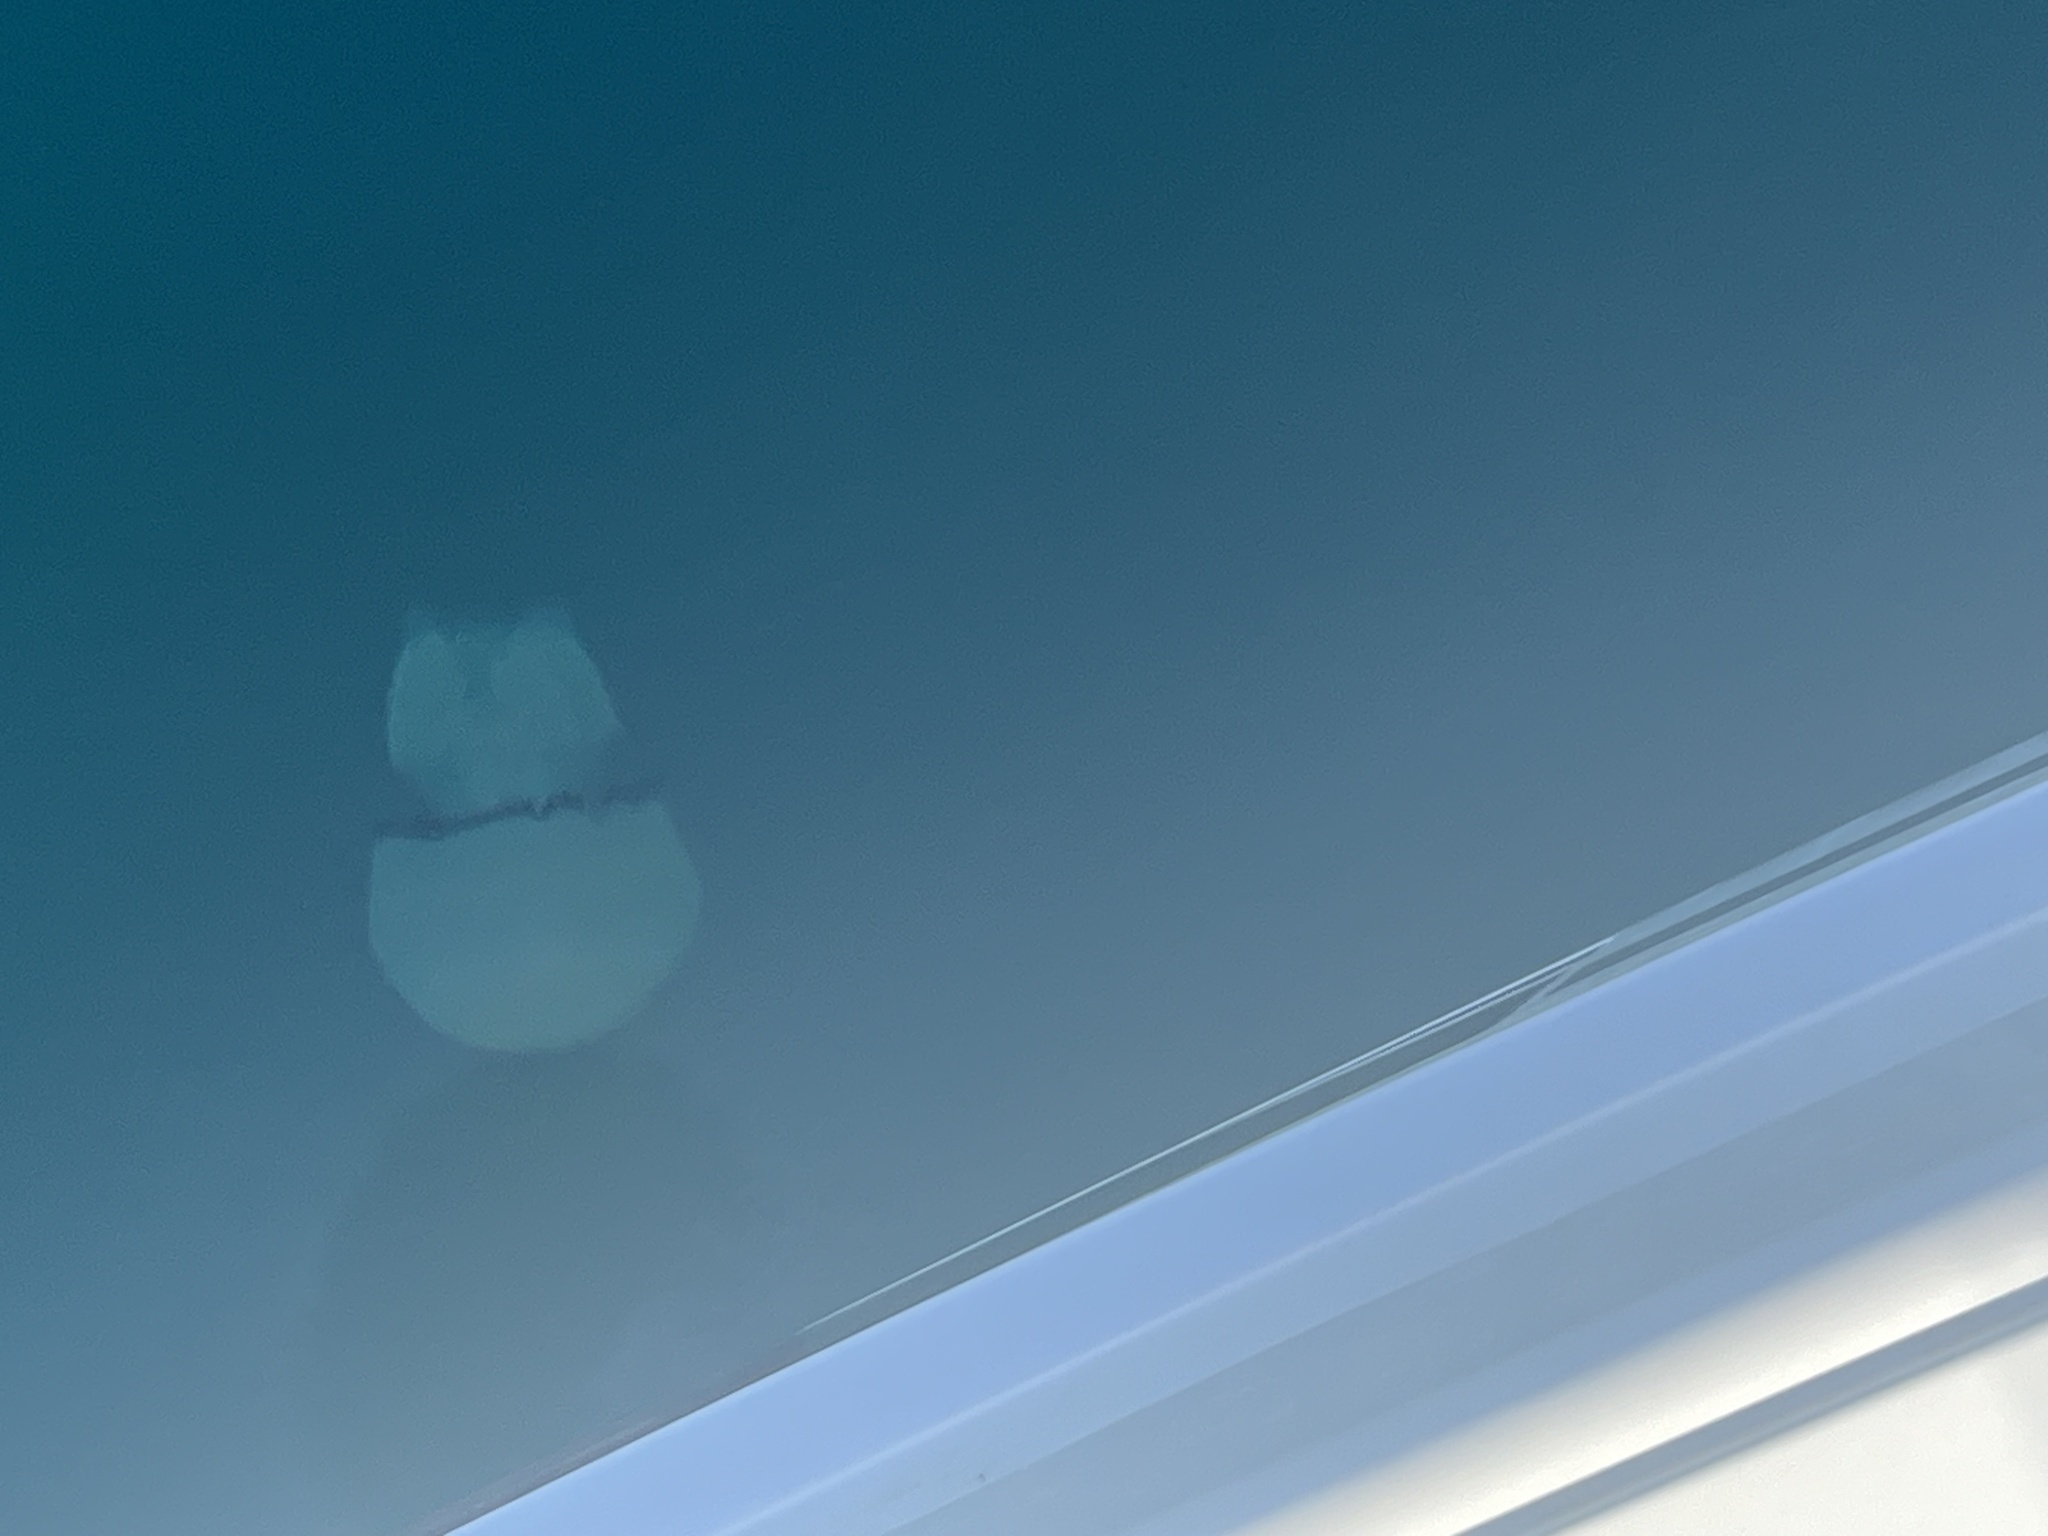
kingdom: Animalia
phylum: Cnidaria
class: Scyphozoa
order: Rhizostomeae
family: Rhizostomatidae
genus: Rhizostoma
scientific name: Rhizostoma pulmo
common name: Barrel jellyfish
